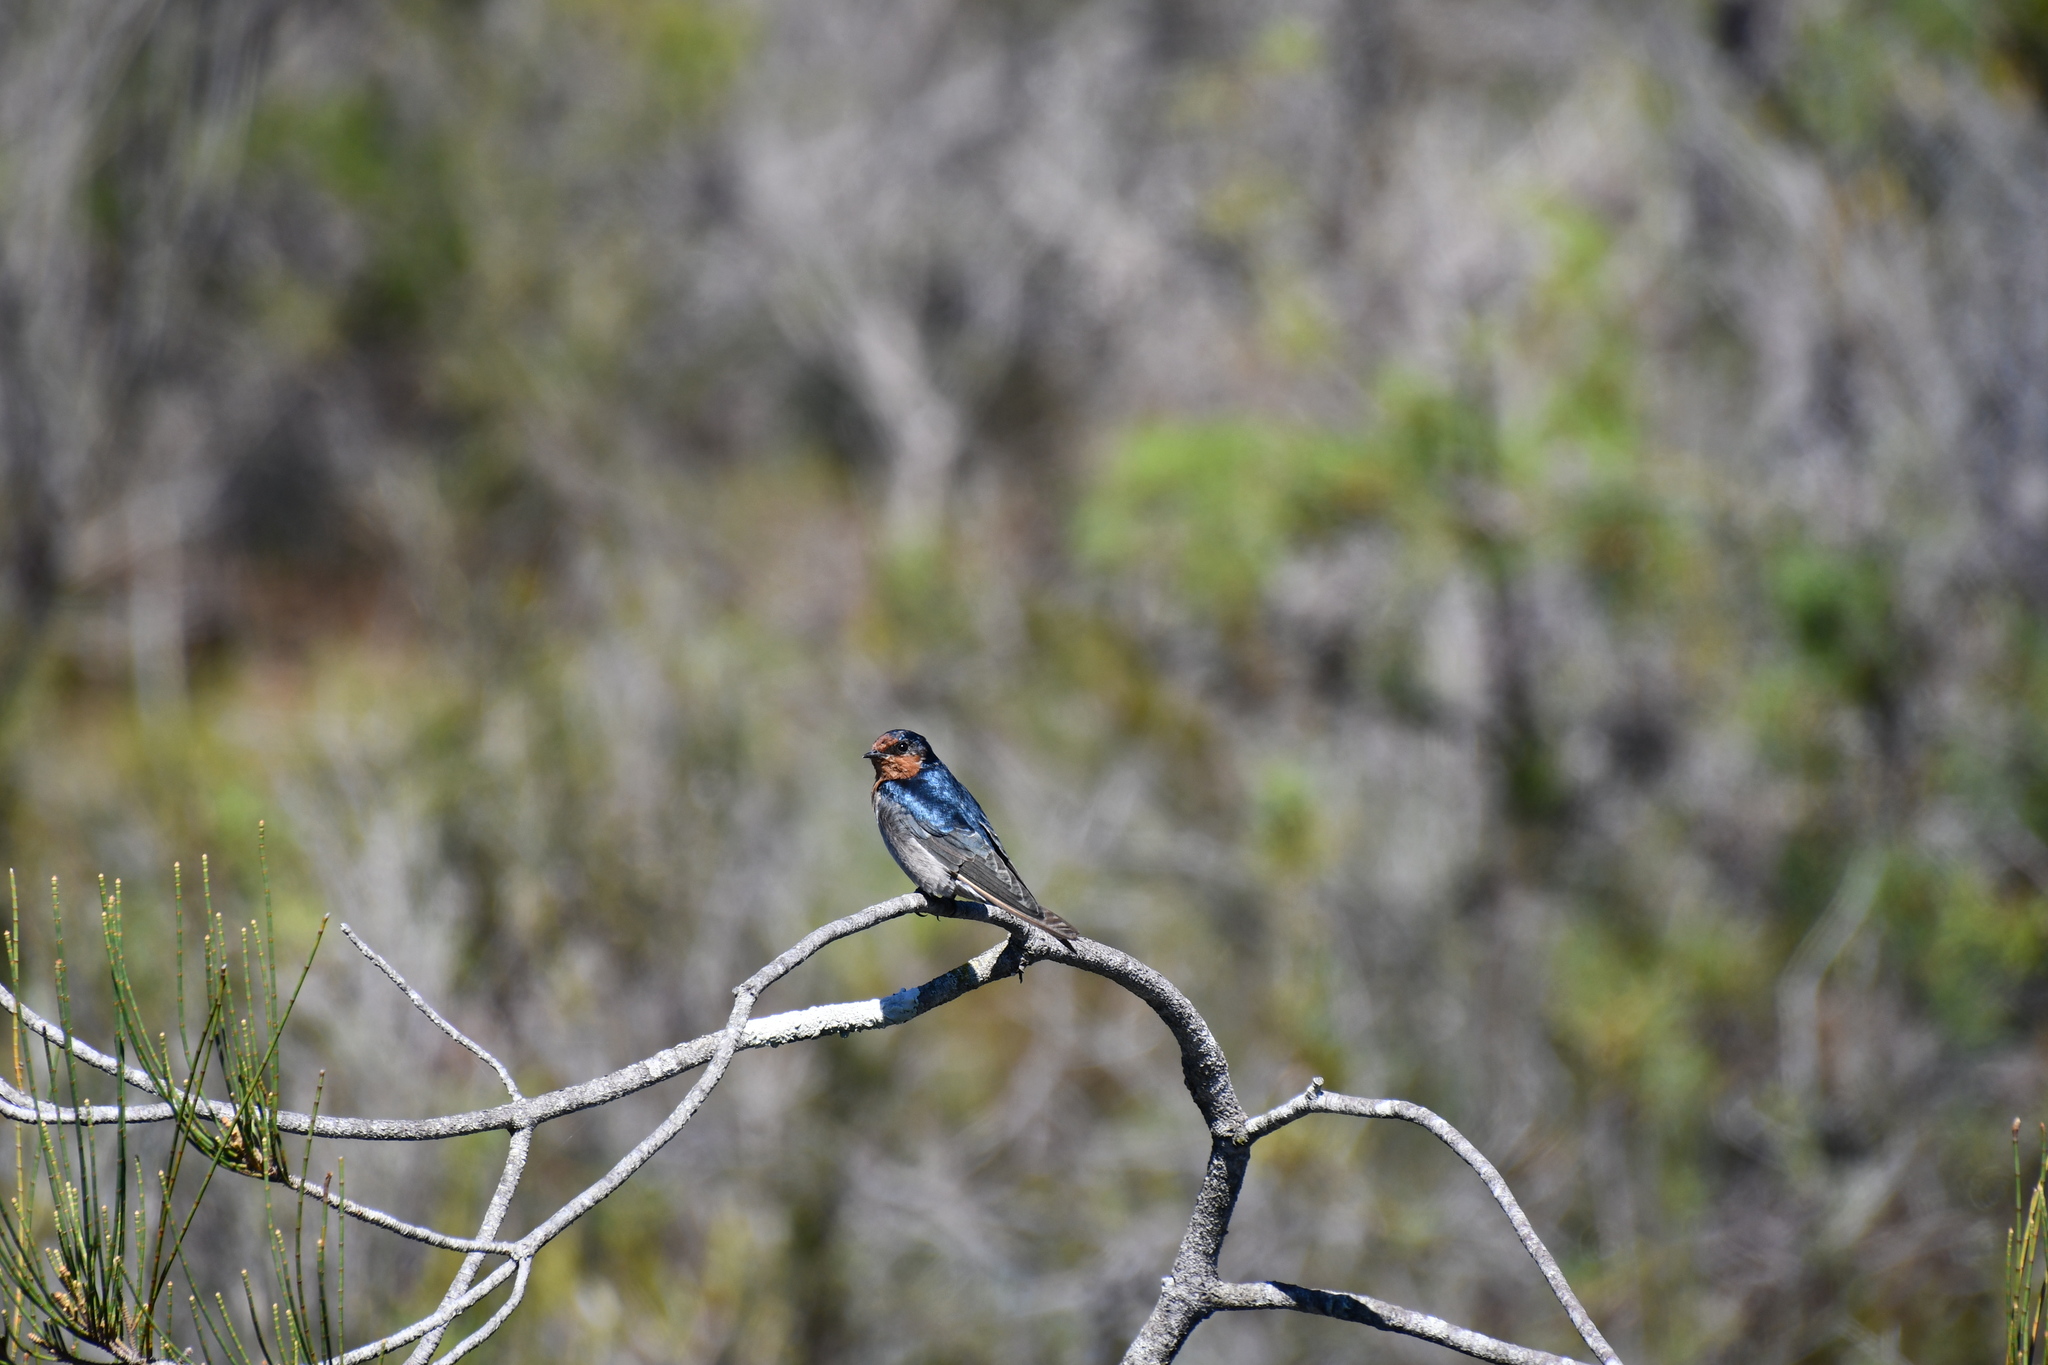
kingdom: Animalia
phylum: Chordata
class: Aves
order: Passeriformes
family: Hirundinidae
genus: Hirundo
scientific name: Hirundo neoxena
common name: Welcome swallow
